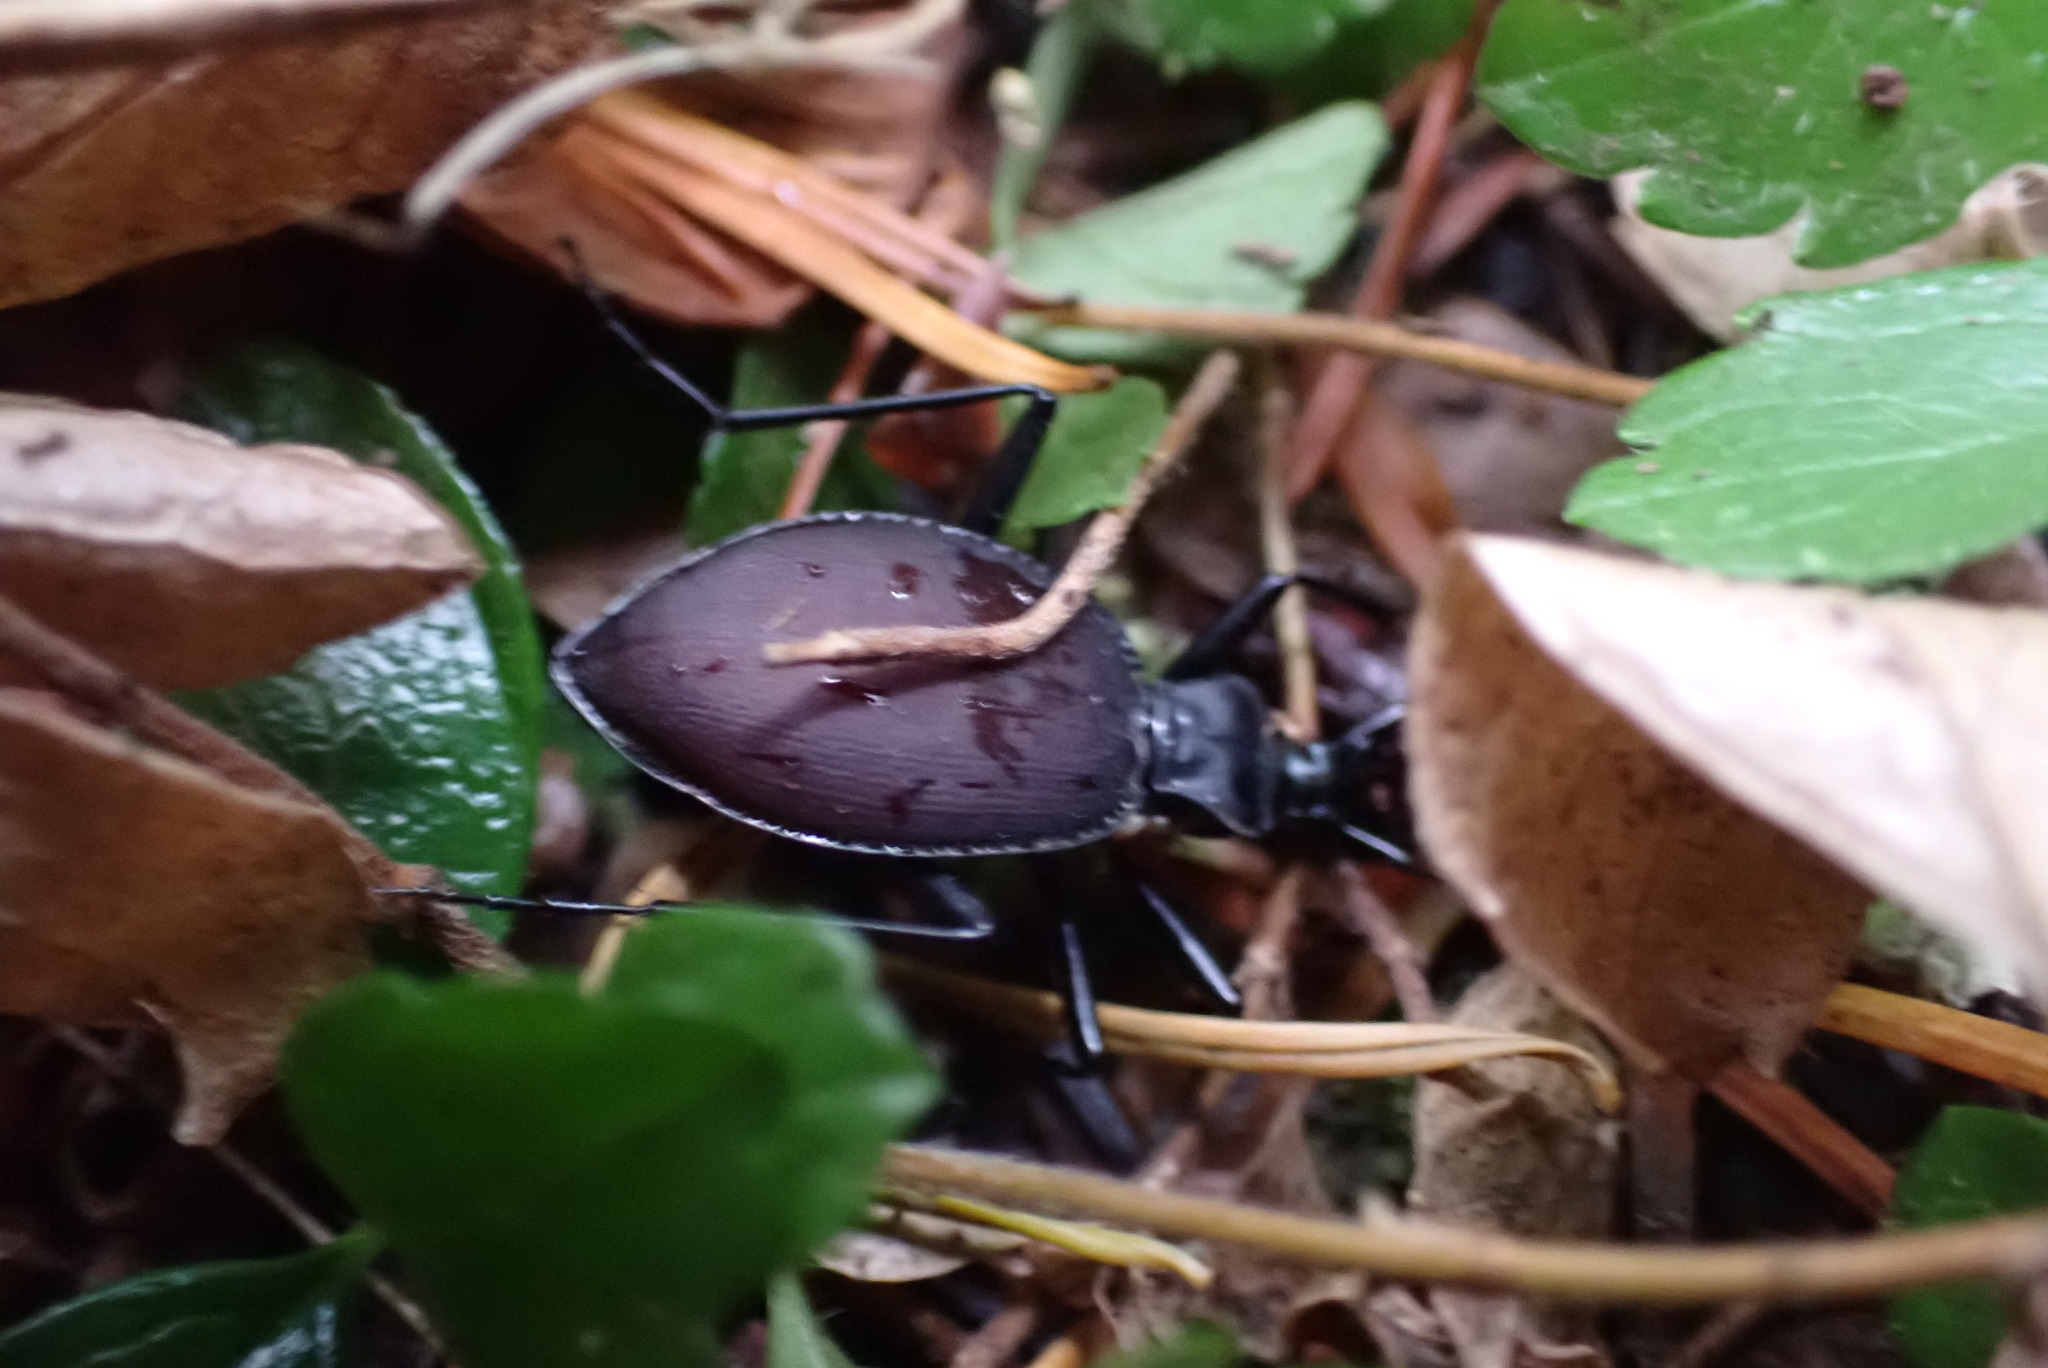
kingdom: Animalia
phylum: Arthropoda
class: Insecta
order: Coleoptera
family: Carabidae
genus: Scaphinotus
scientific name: Scaphinotus angusticollis
